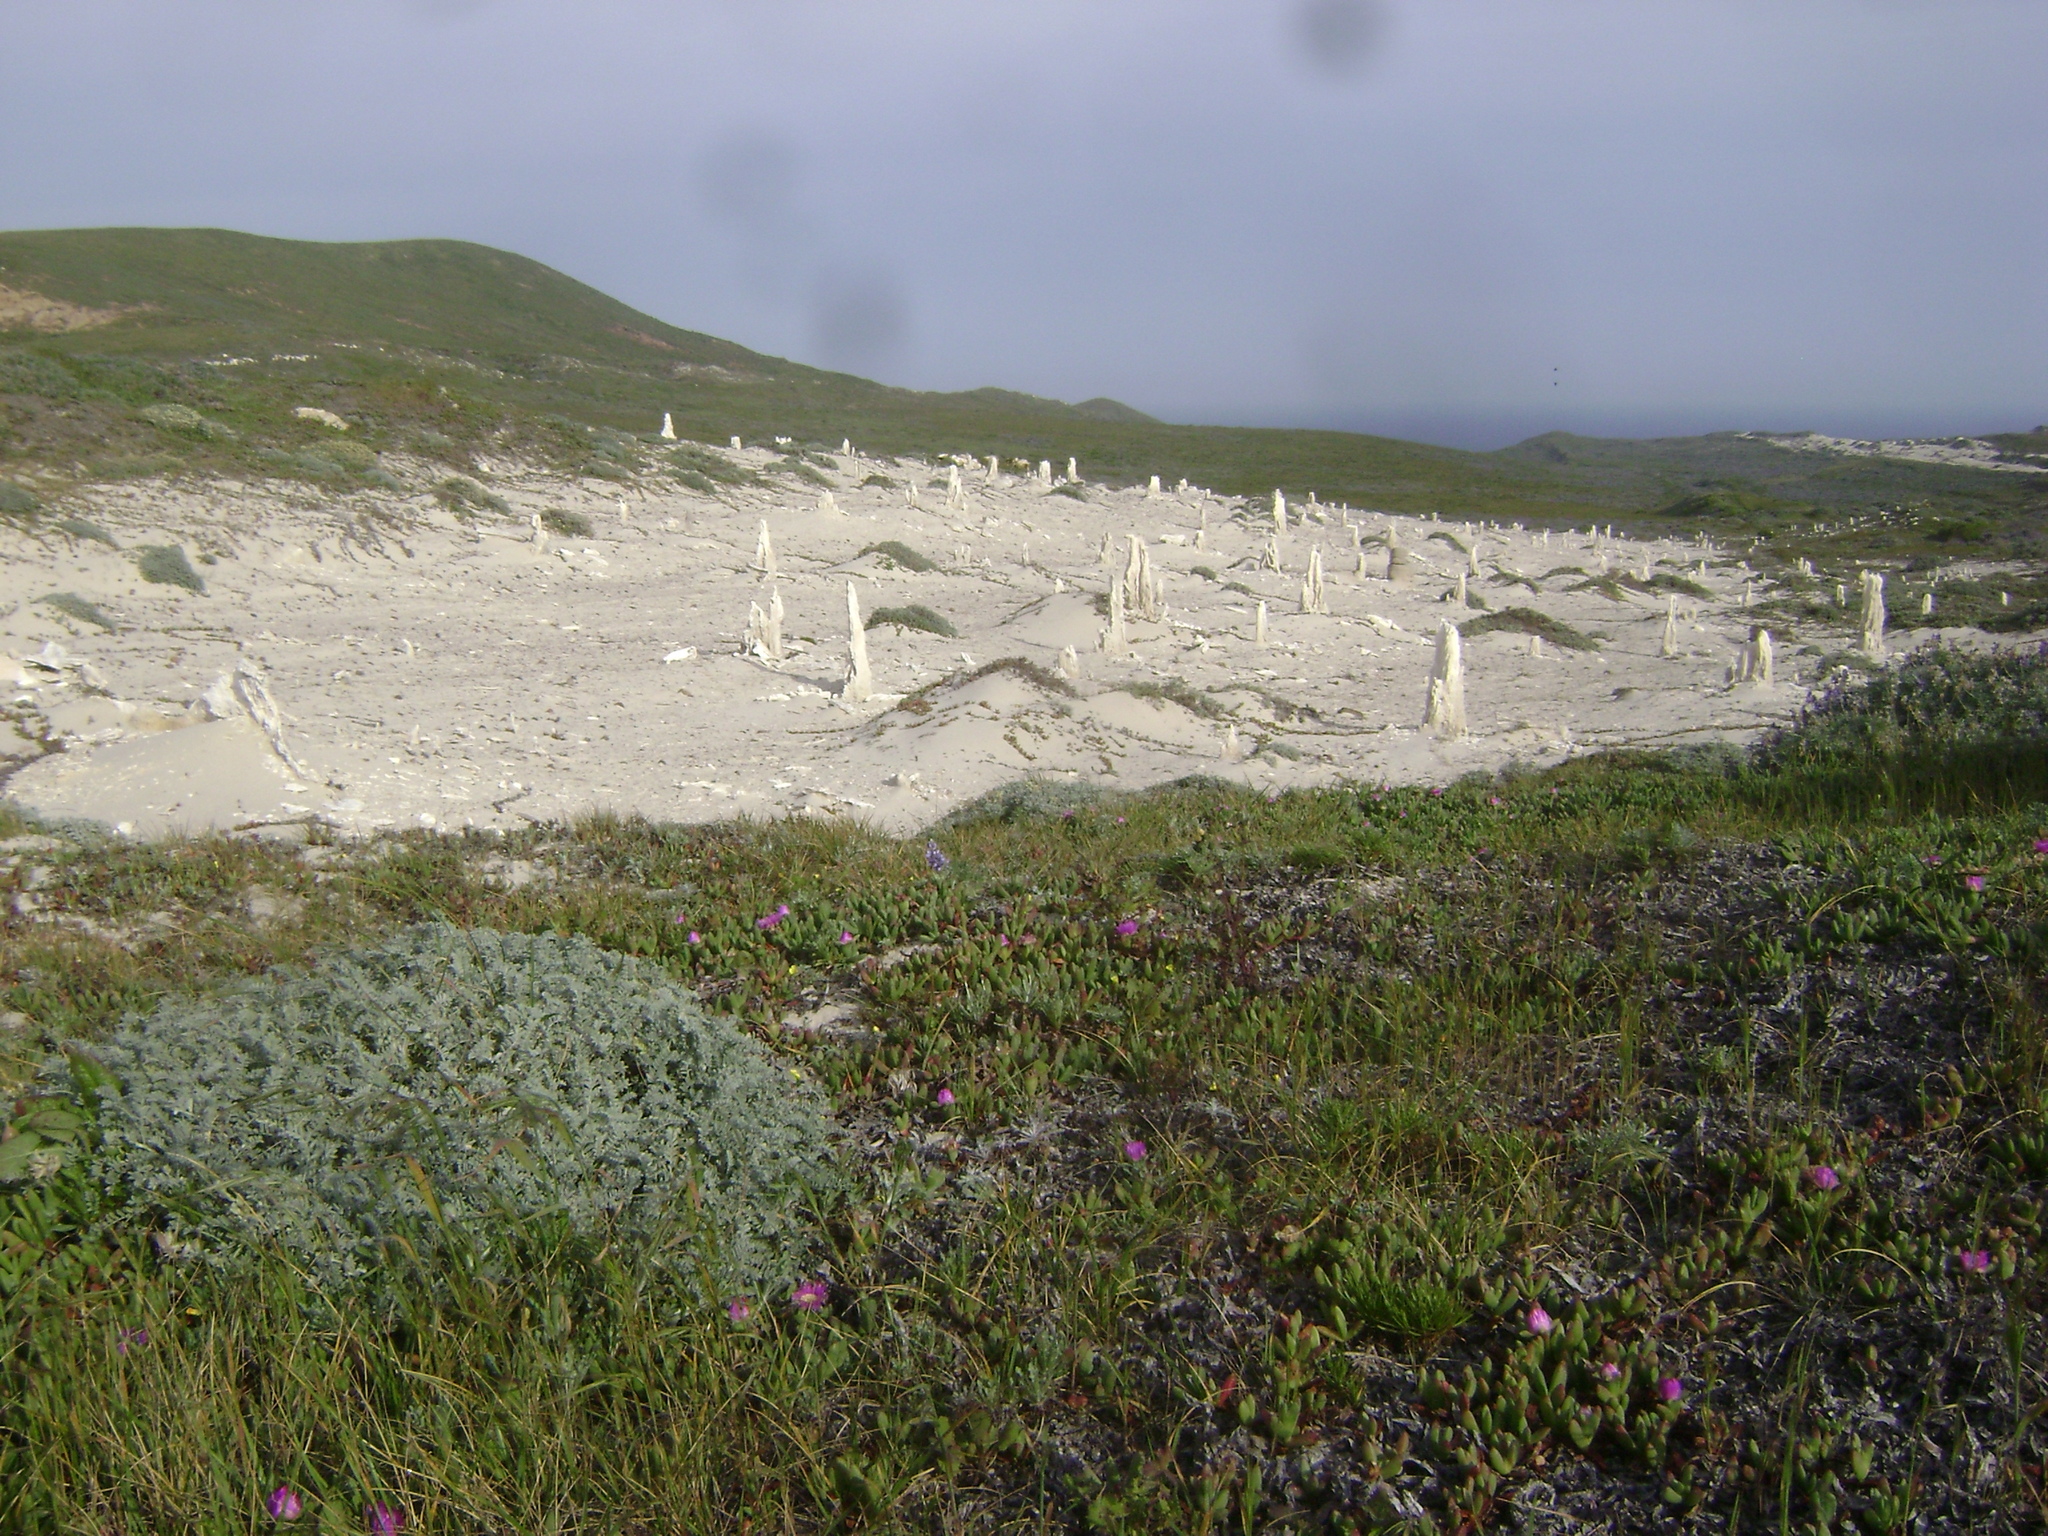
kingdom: Plantae
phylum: Tracheophyta
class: Magnoliopsida
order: Fabales
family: Fabaceae
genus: Astragalus
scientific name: Astragalus miguelensis
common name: San miguel milk-vetch
